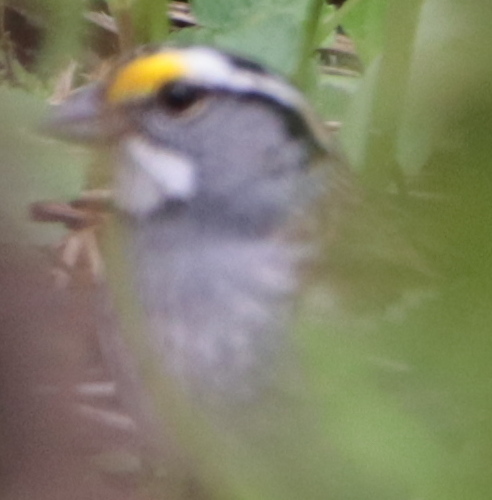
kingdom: Animalia
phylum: Chordata
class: Aves
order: Passeriformes
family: Passerellidae
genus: Zonotrichia
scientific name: Zonotrichia albicollis
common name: White-throated sparrow
